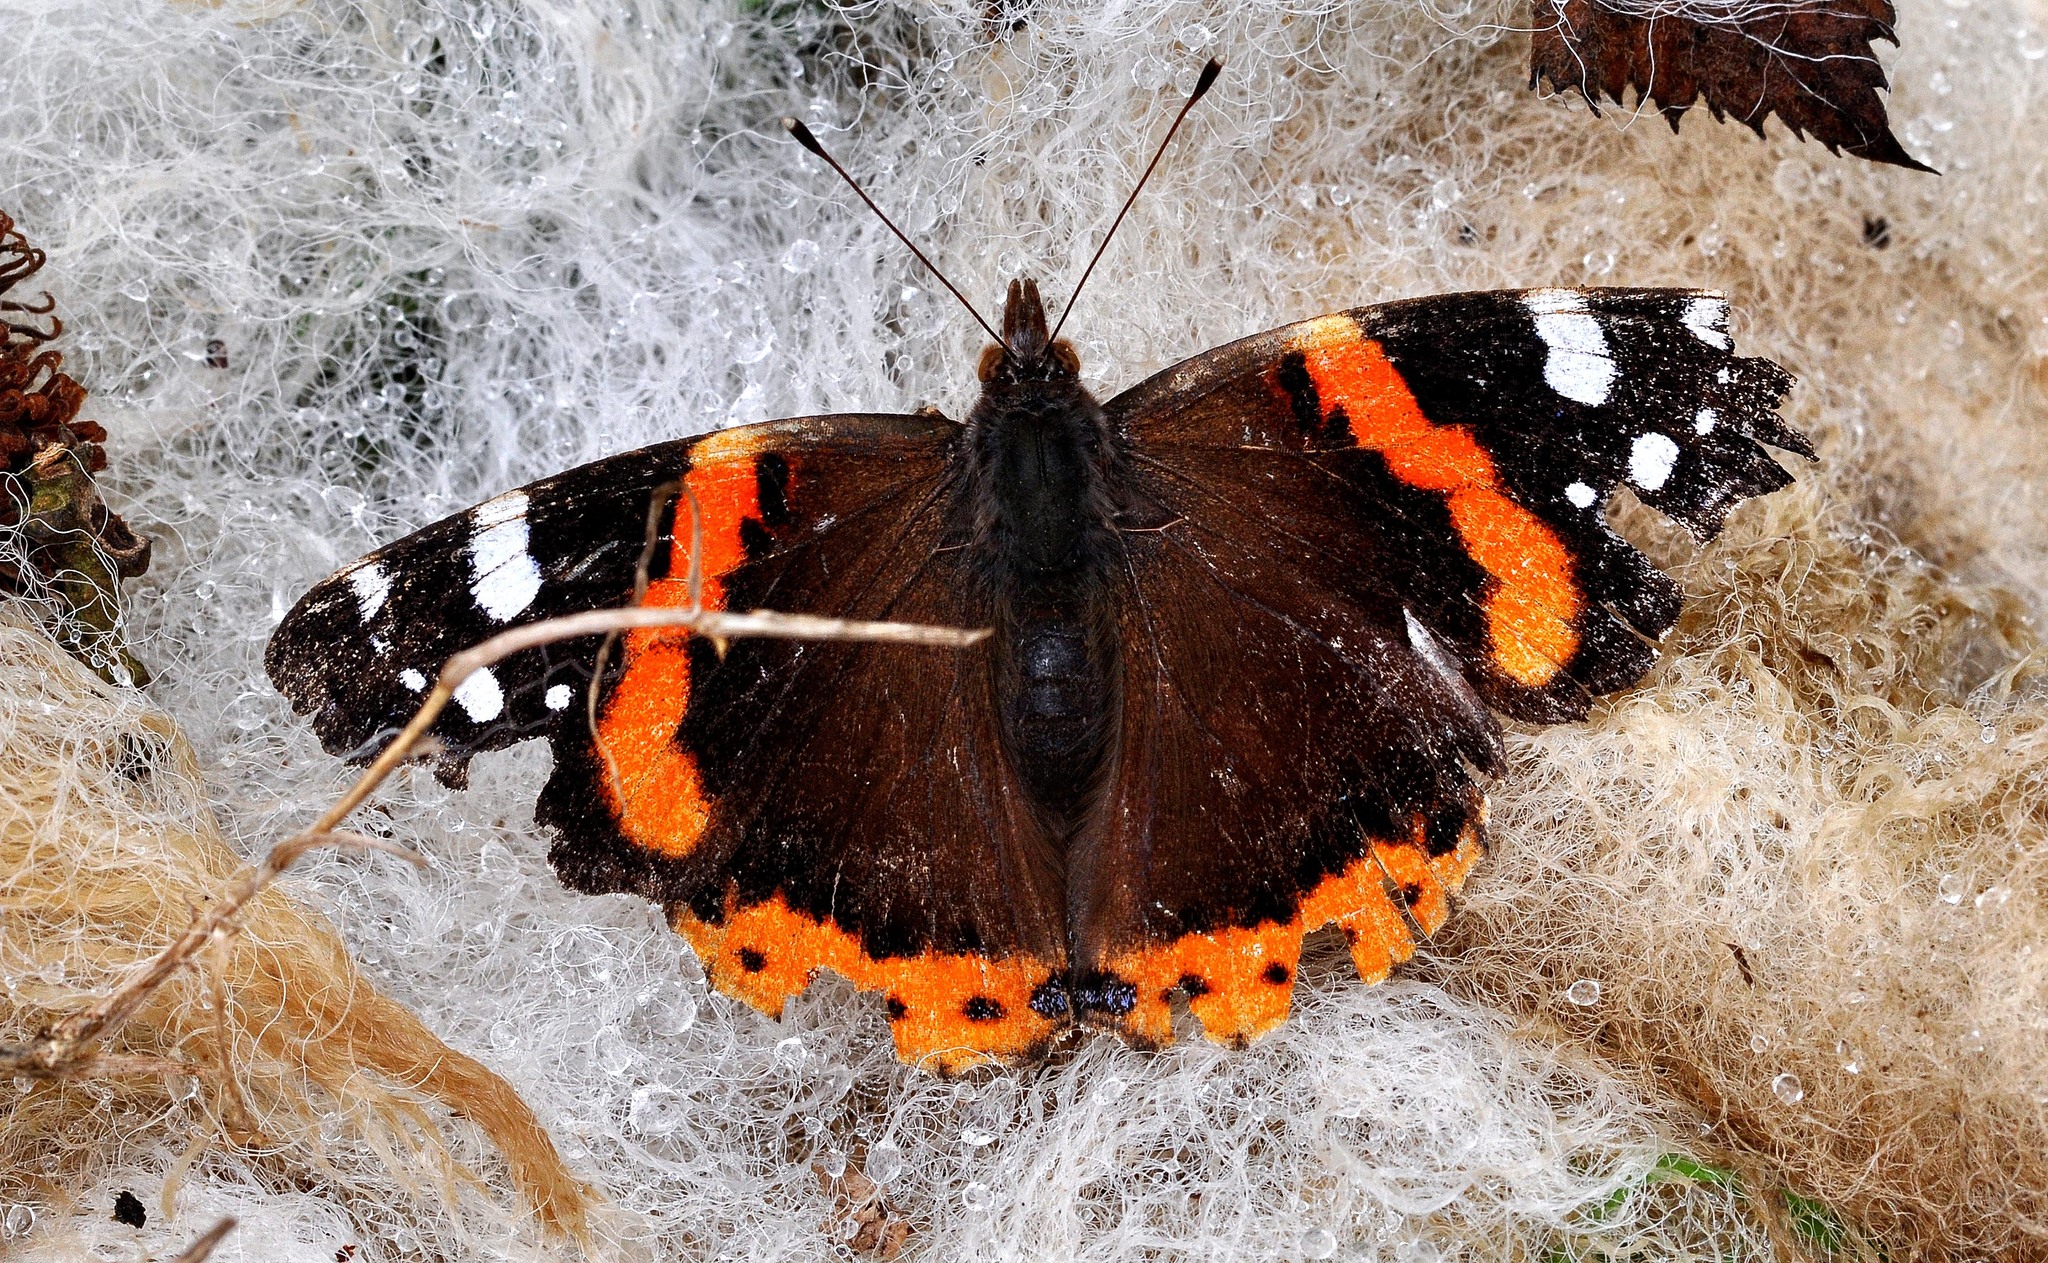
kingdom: Animalia
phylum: Arthropoda
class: Insecta
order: Lepidoptera
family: Nymphalidae
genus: Vanessa
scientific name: Vanessa atalanta
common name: Red admiral
